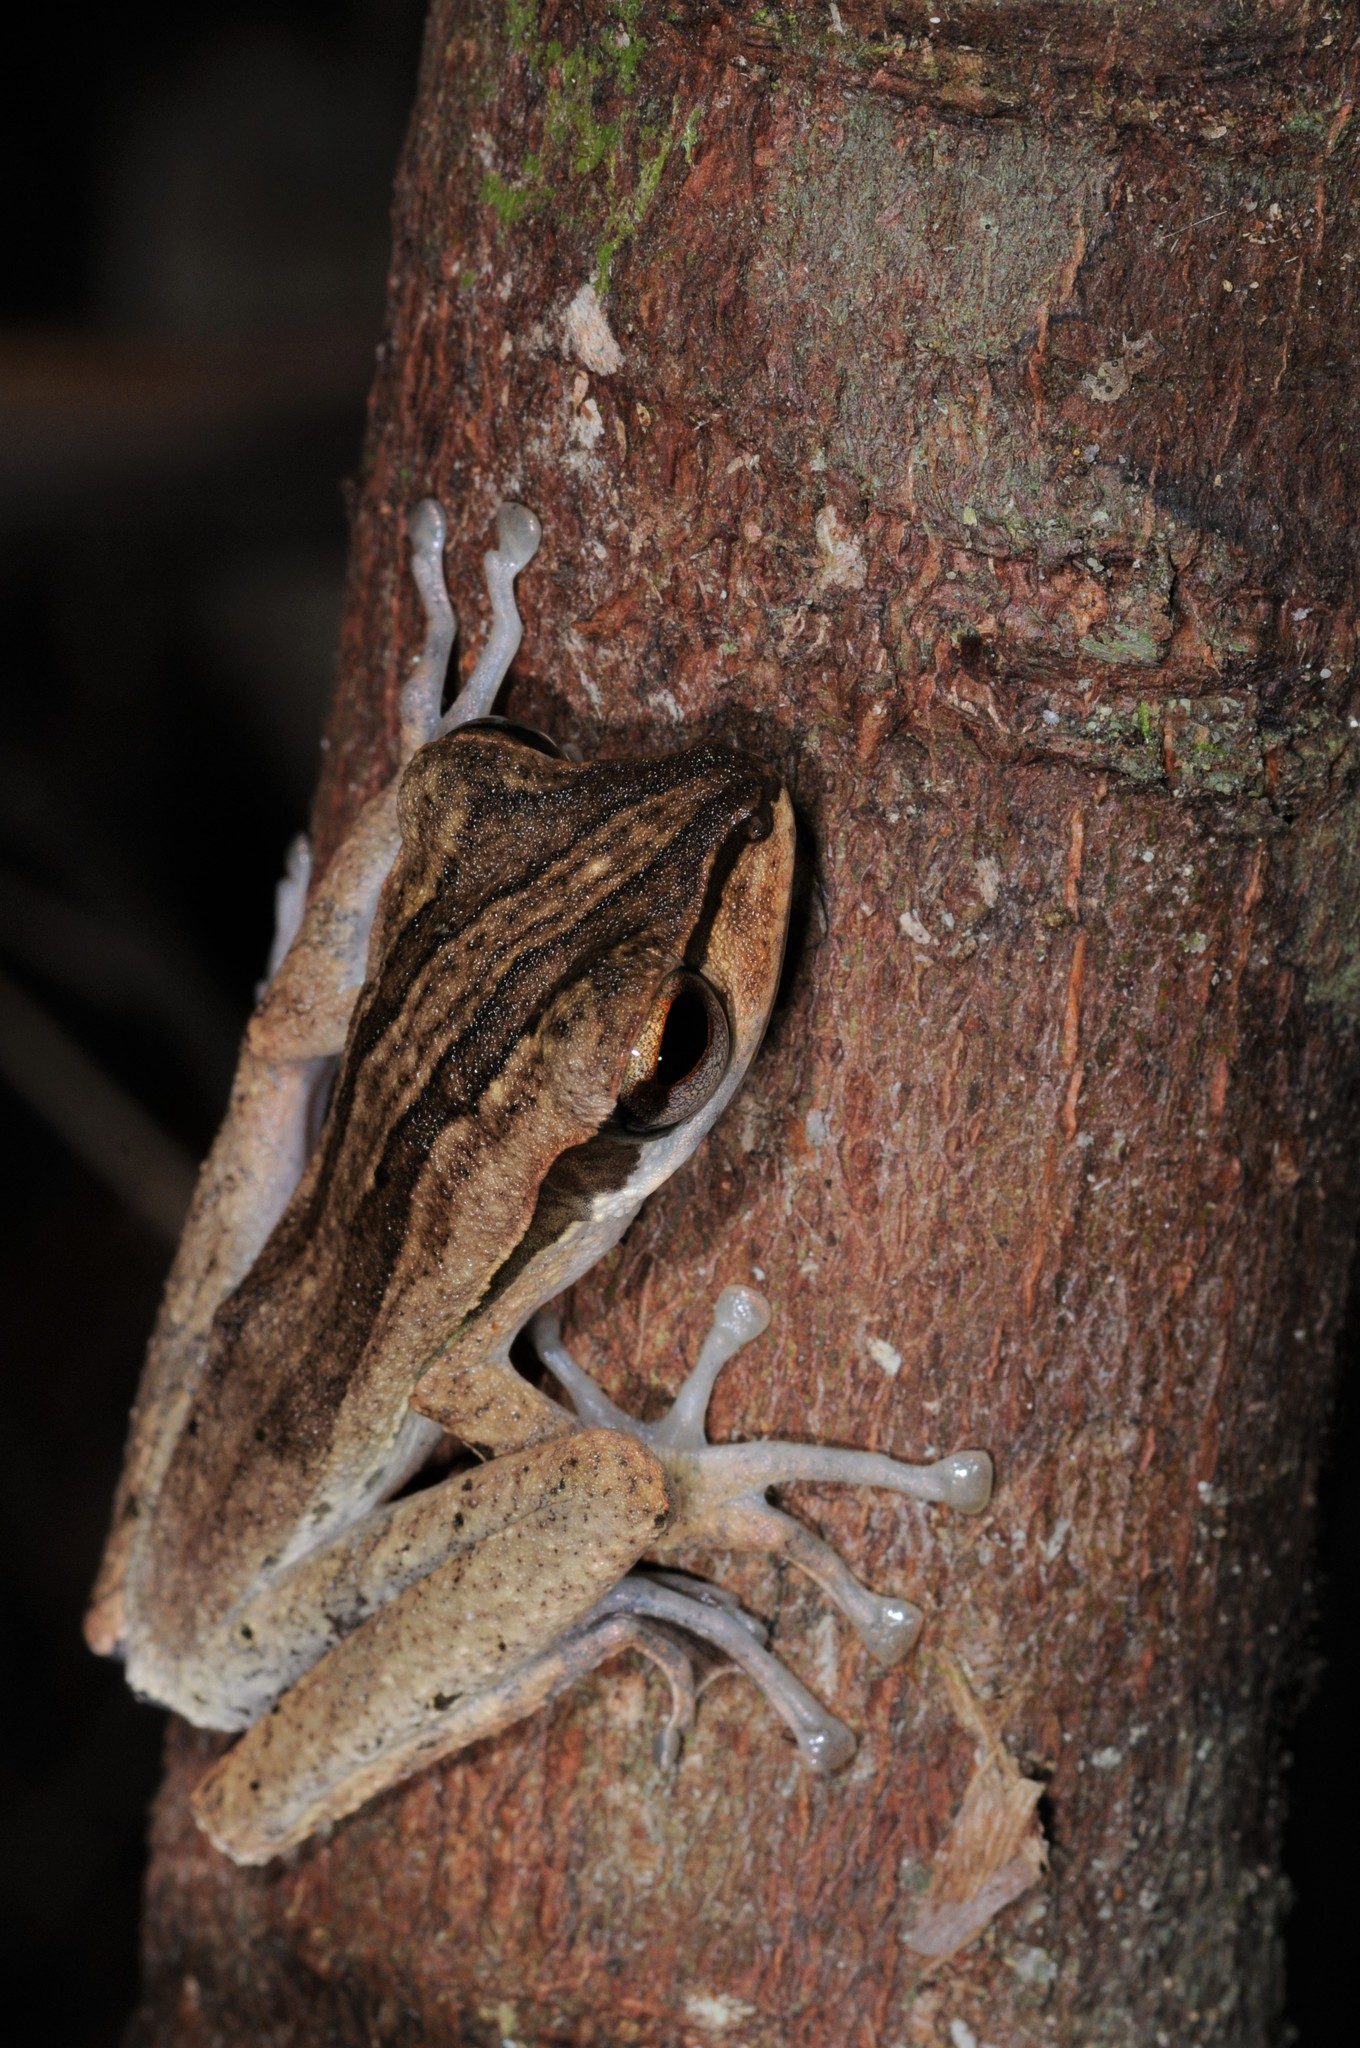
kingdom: Animalia
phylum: Chordata
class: Amphibia
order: Anura
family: Rhacophoridae
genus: Polypedates
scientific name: Polypedates macrotis
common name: Dark-eared tree frog
